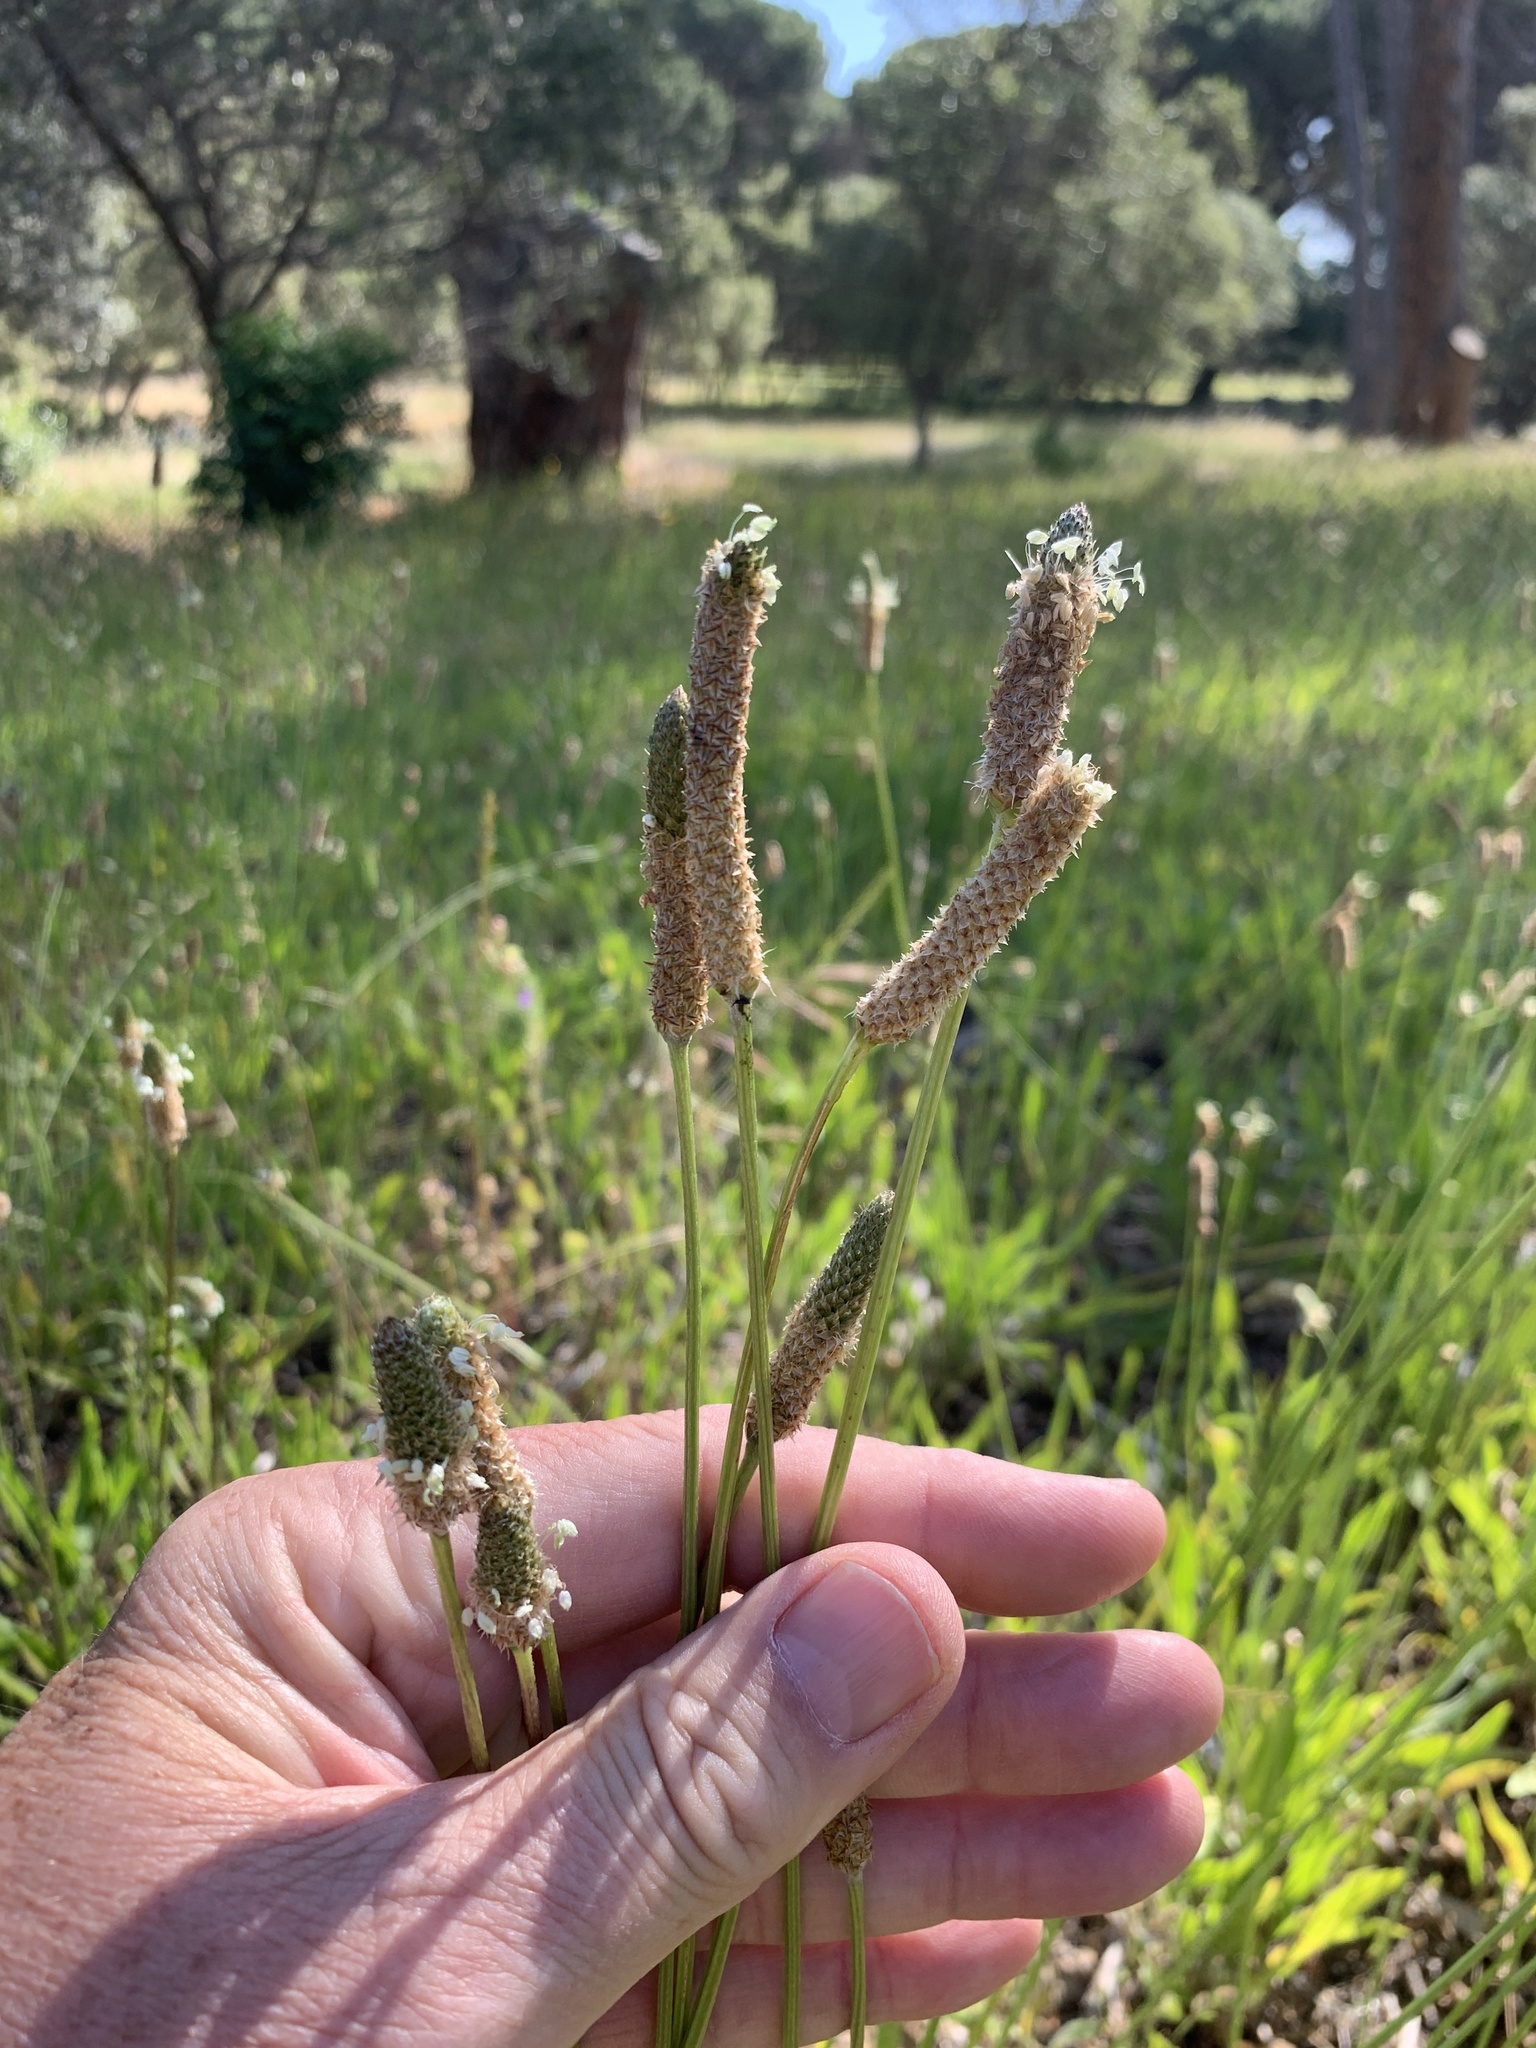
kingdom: Plantae
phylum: Tracheophyta
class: Magnoliopsida
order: Lamiales
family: Plantaginaceae
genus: Plantago
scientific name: Plantago lanceolata
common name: Ribwort plantain
